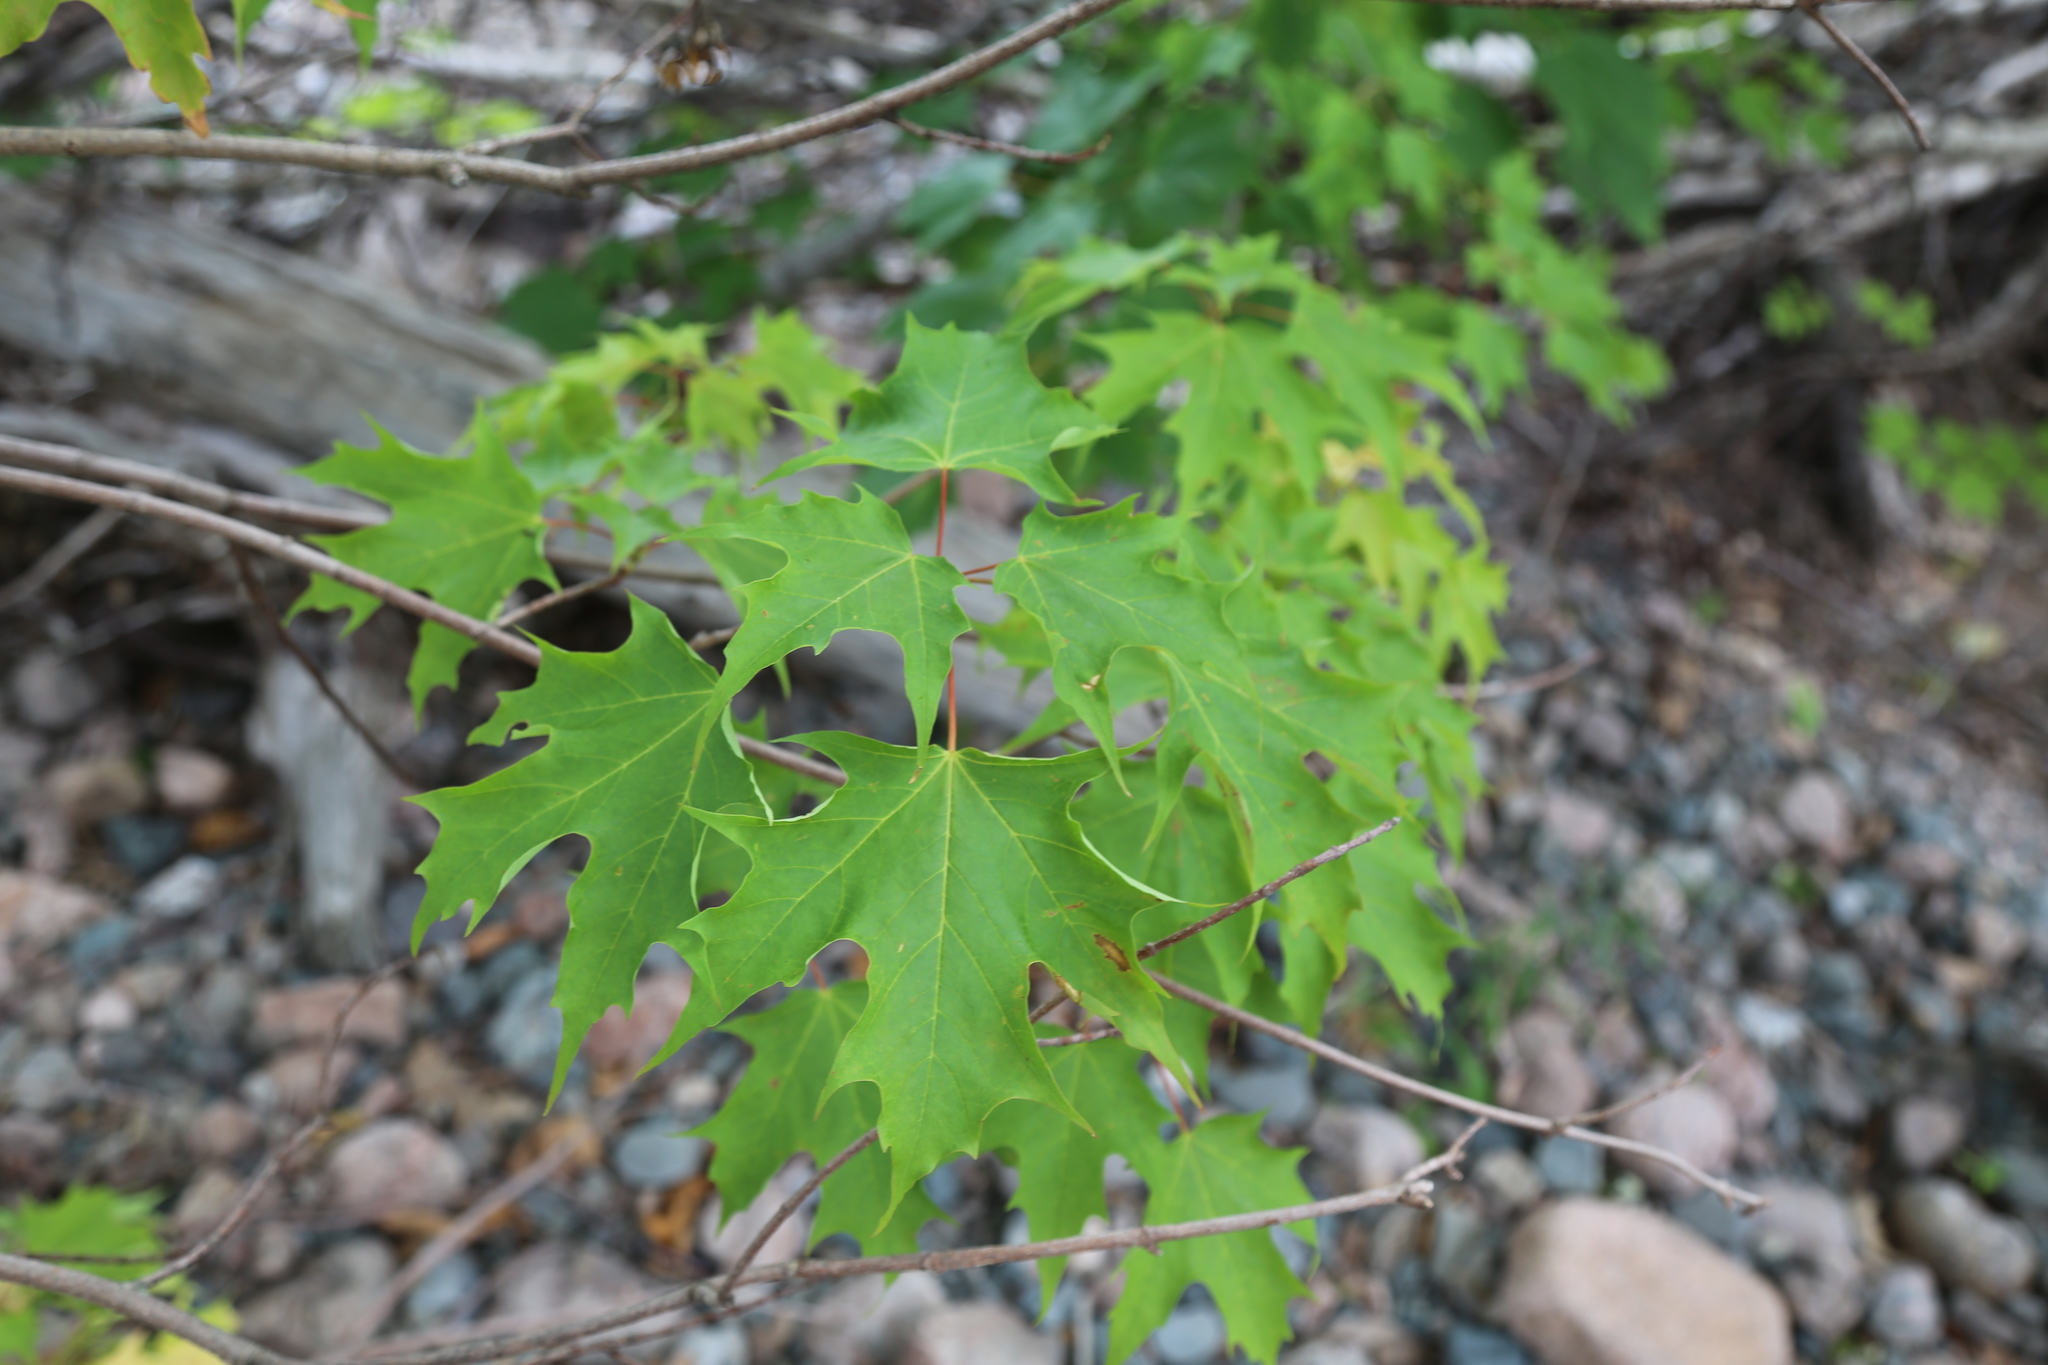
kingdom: Plantae
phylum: Tracheophyta
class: Magnoliopsida
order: Sapindales
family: Sapindaceae
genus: Acer
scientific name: Acer saccharum
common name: Sugar maple
